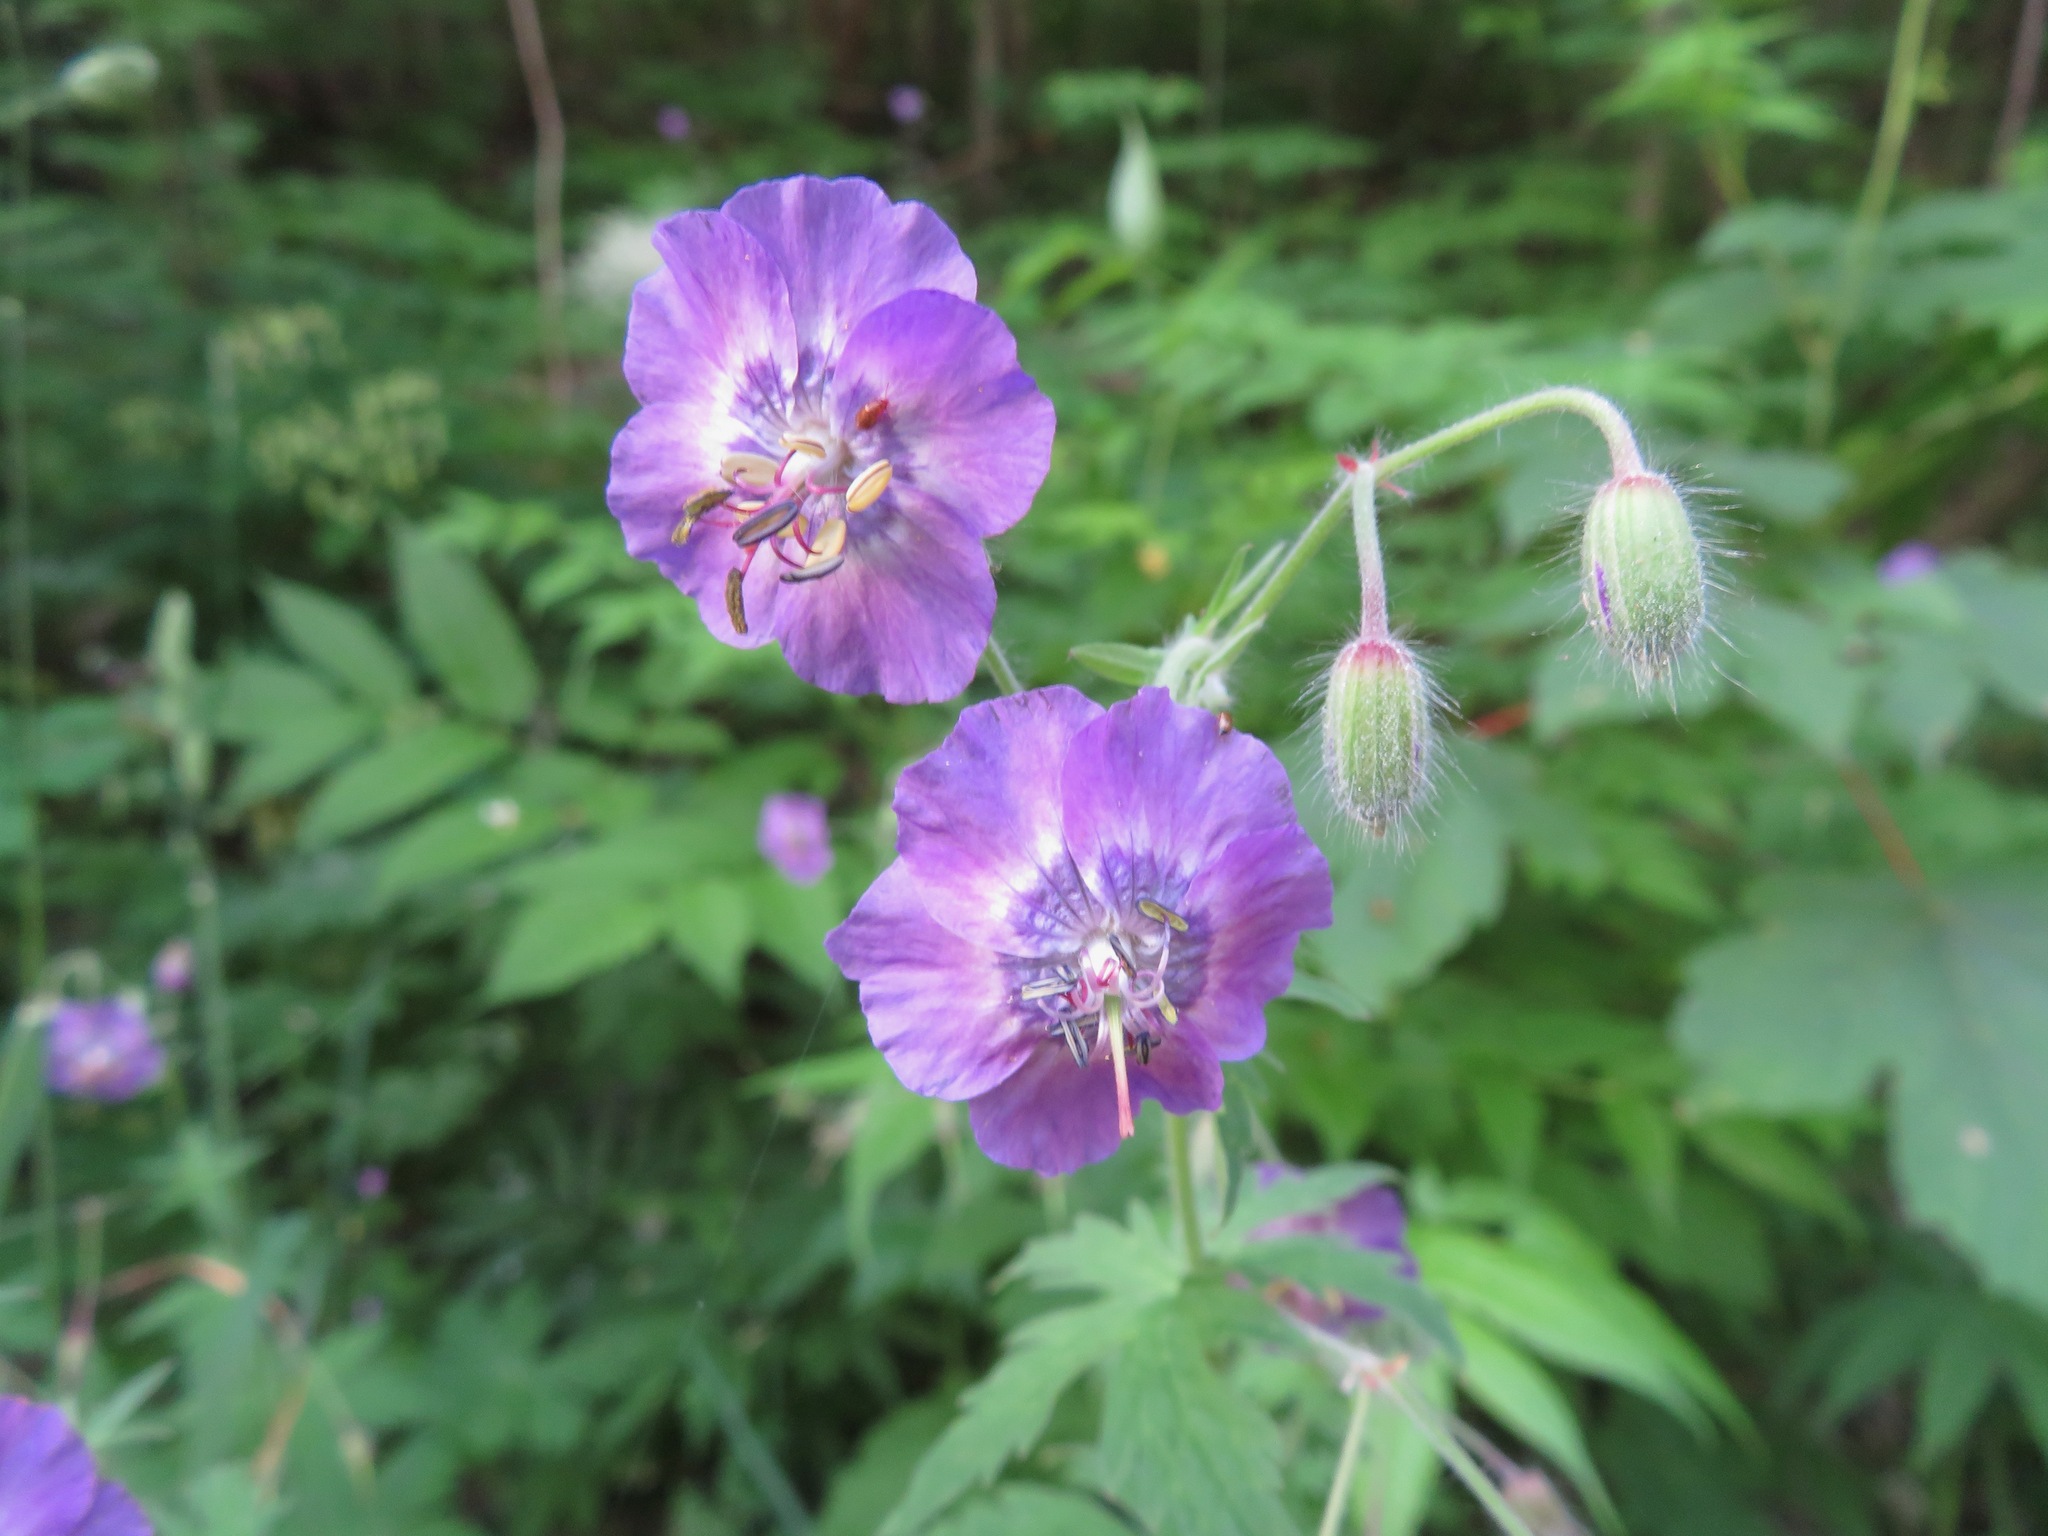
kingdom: Plantae
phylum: Tracheophyta
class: Magnoliopsida
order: Geraniales
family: Geraniaceae
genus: Geranium
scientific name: Geranium phaeum
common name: Dusky crane's-bill
